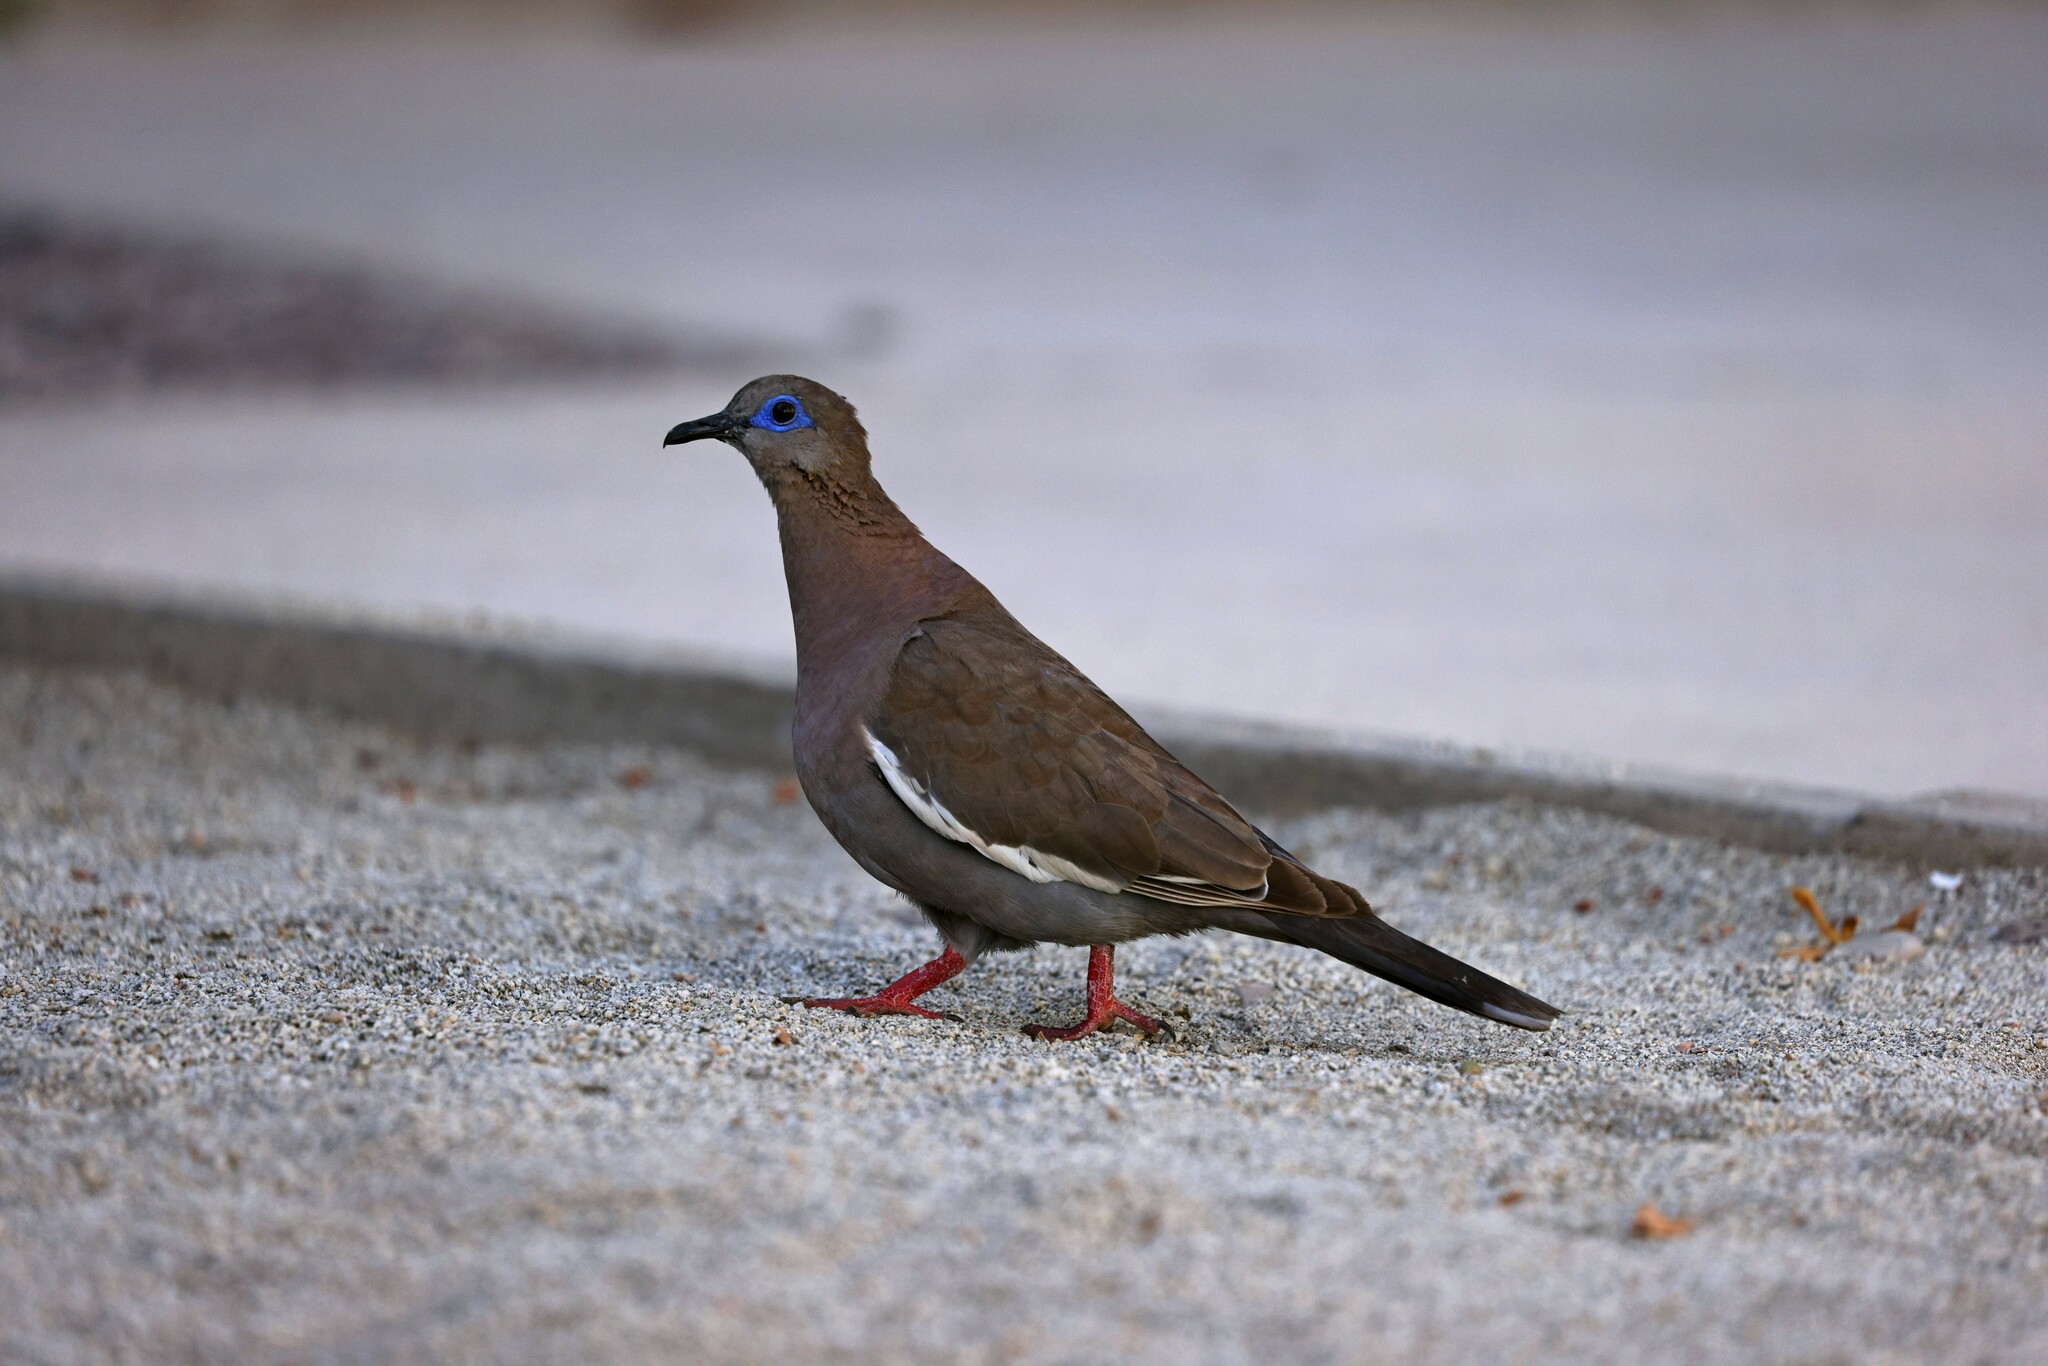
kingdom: Animalia
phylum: Chordata
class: Aves
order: Columbiformes
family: Columbidae
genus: Zenaida
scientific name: Zenaida meloda
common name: West peruvian dove
